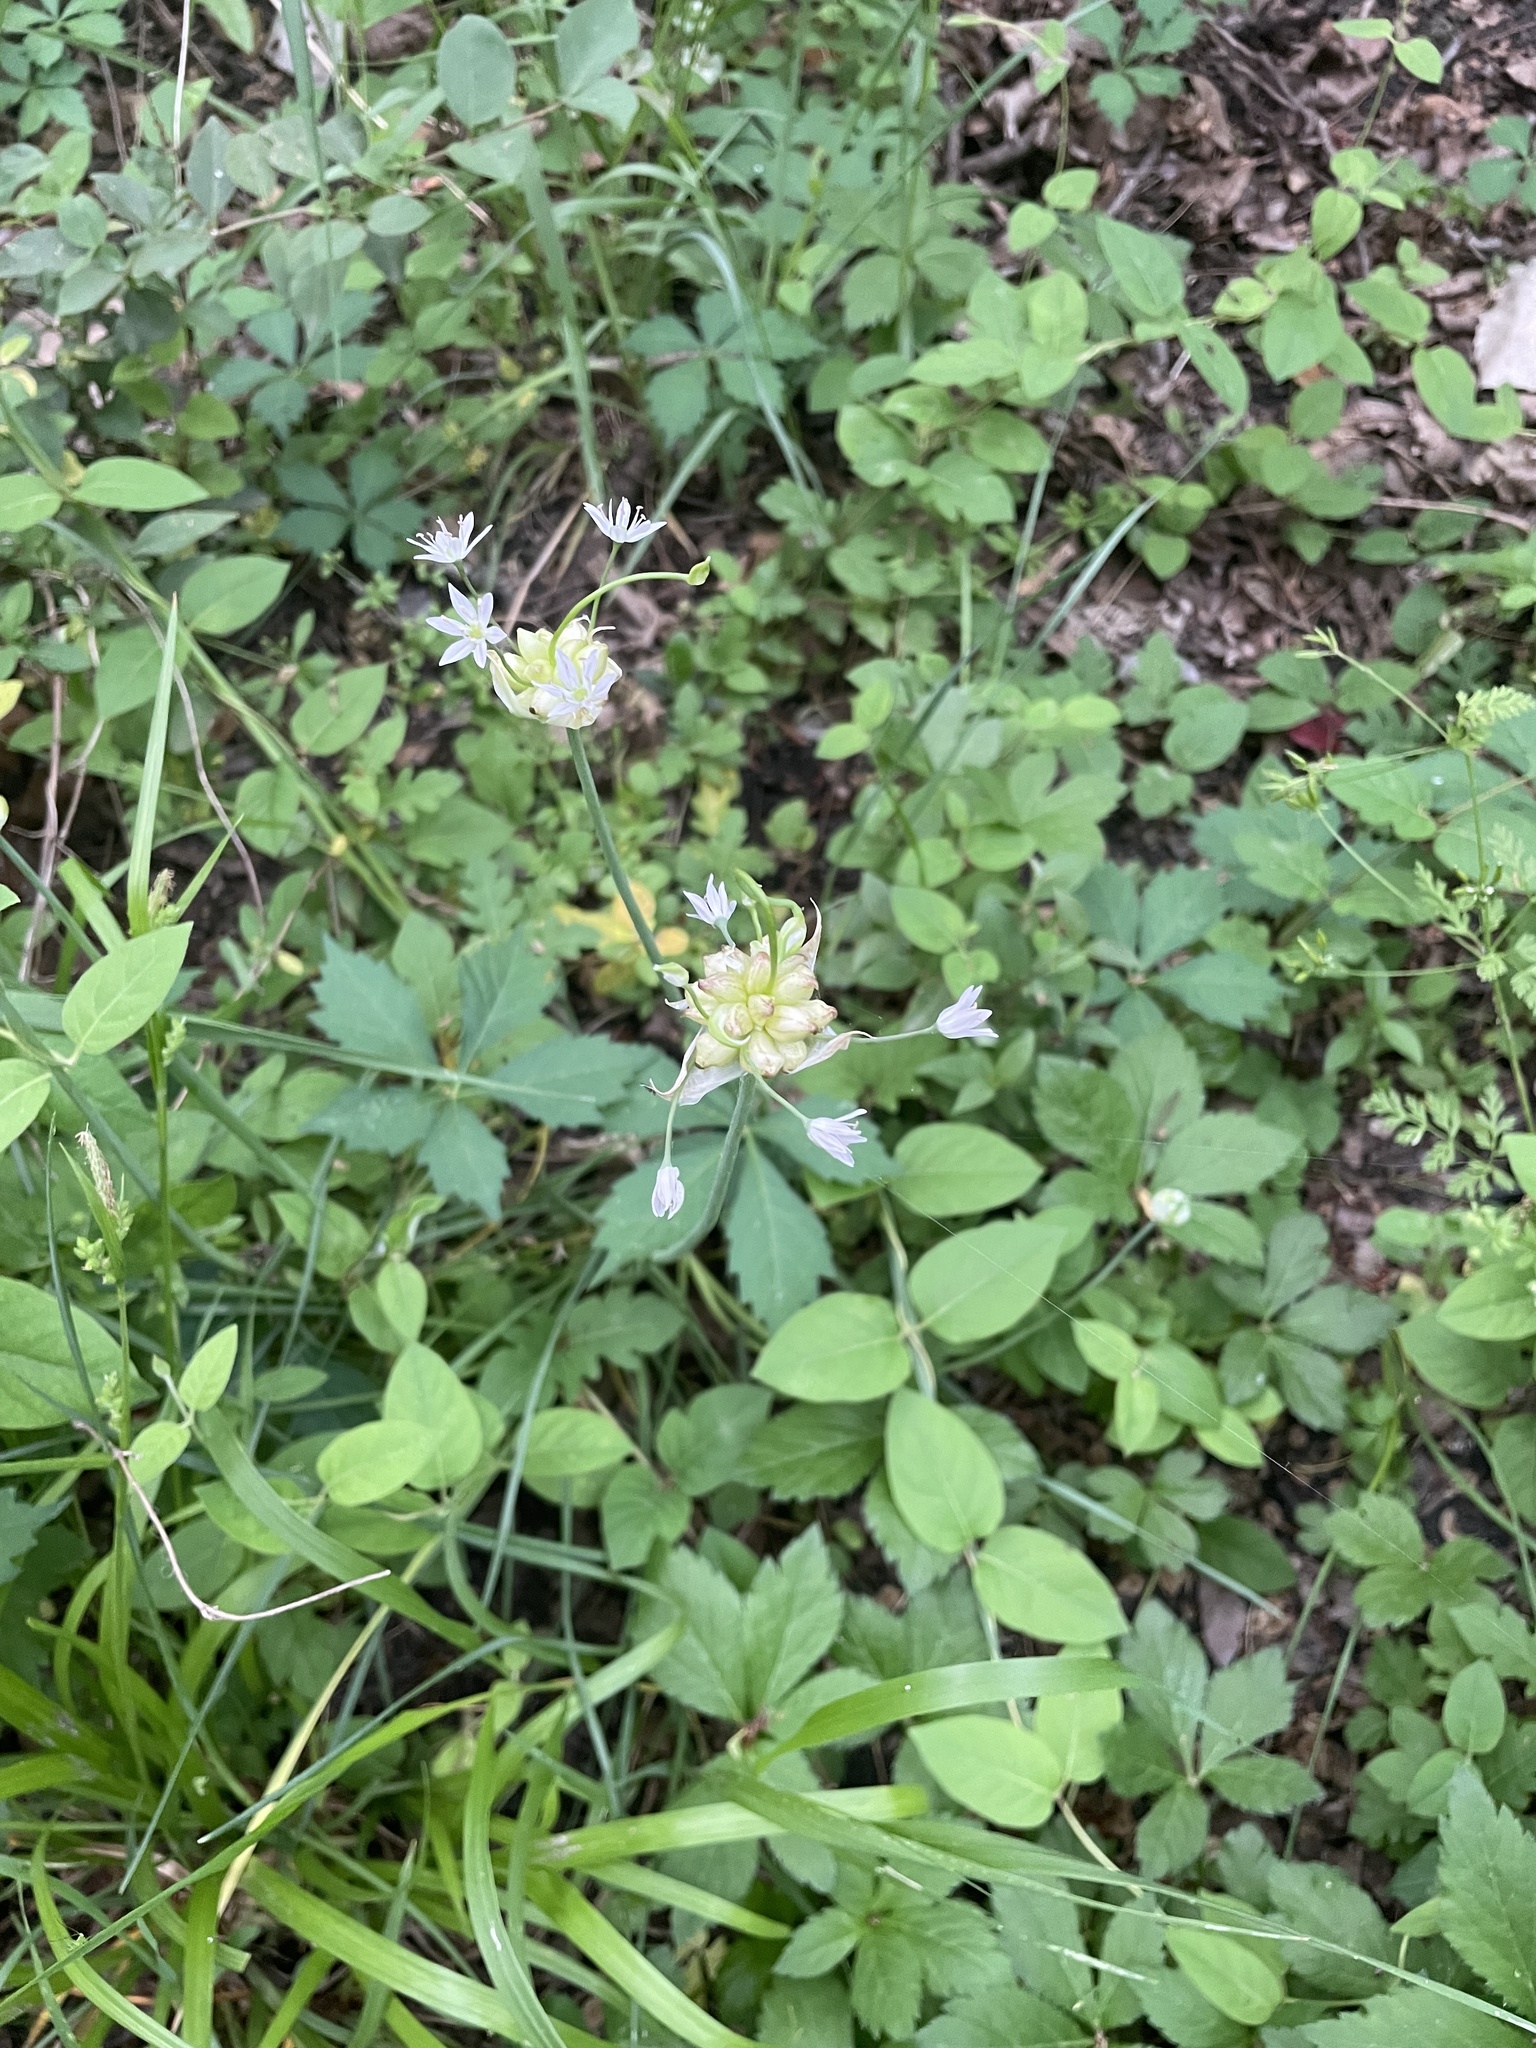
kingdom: Plantae
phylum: Tracheophyta
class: Liliopsida
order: Asparagales
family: Amaryllidaceae
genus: Allium
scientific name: Allium canadense
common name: Meadow garlic
